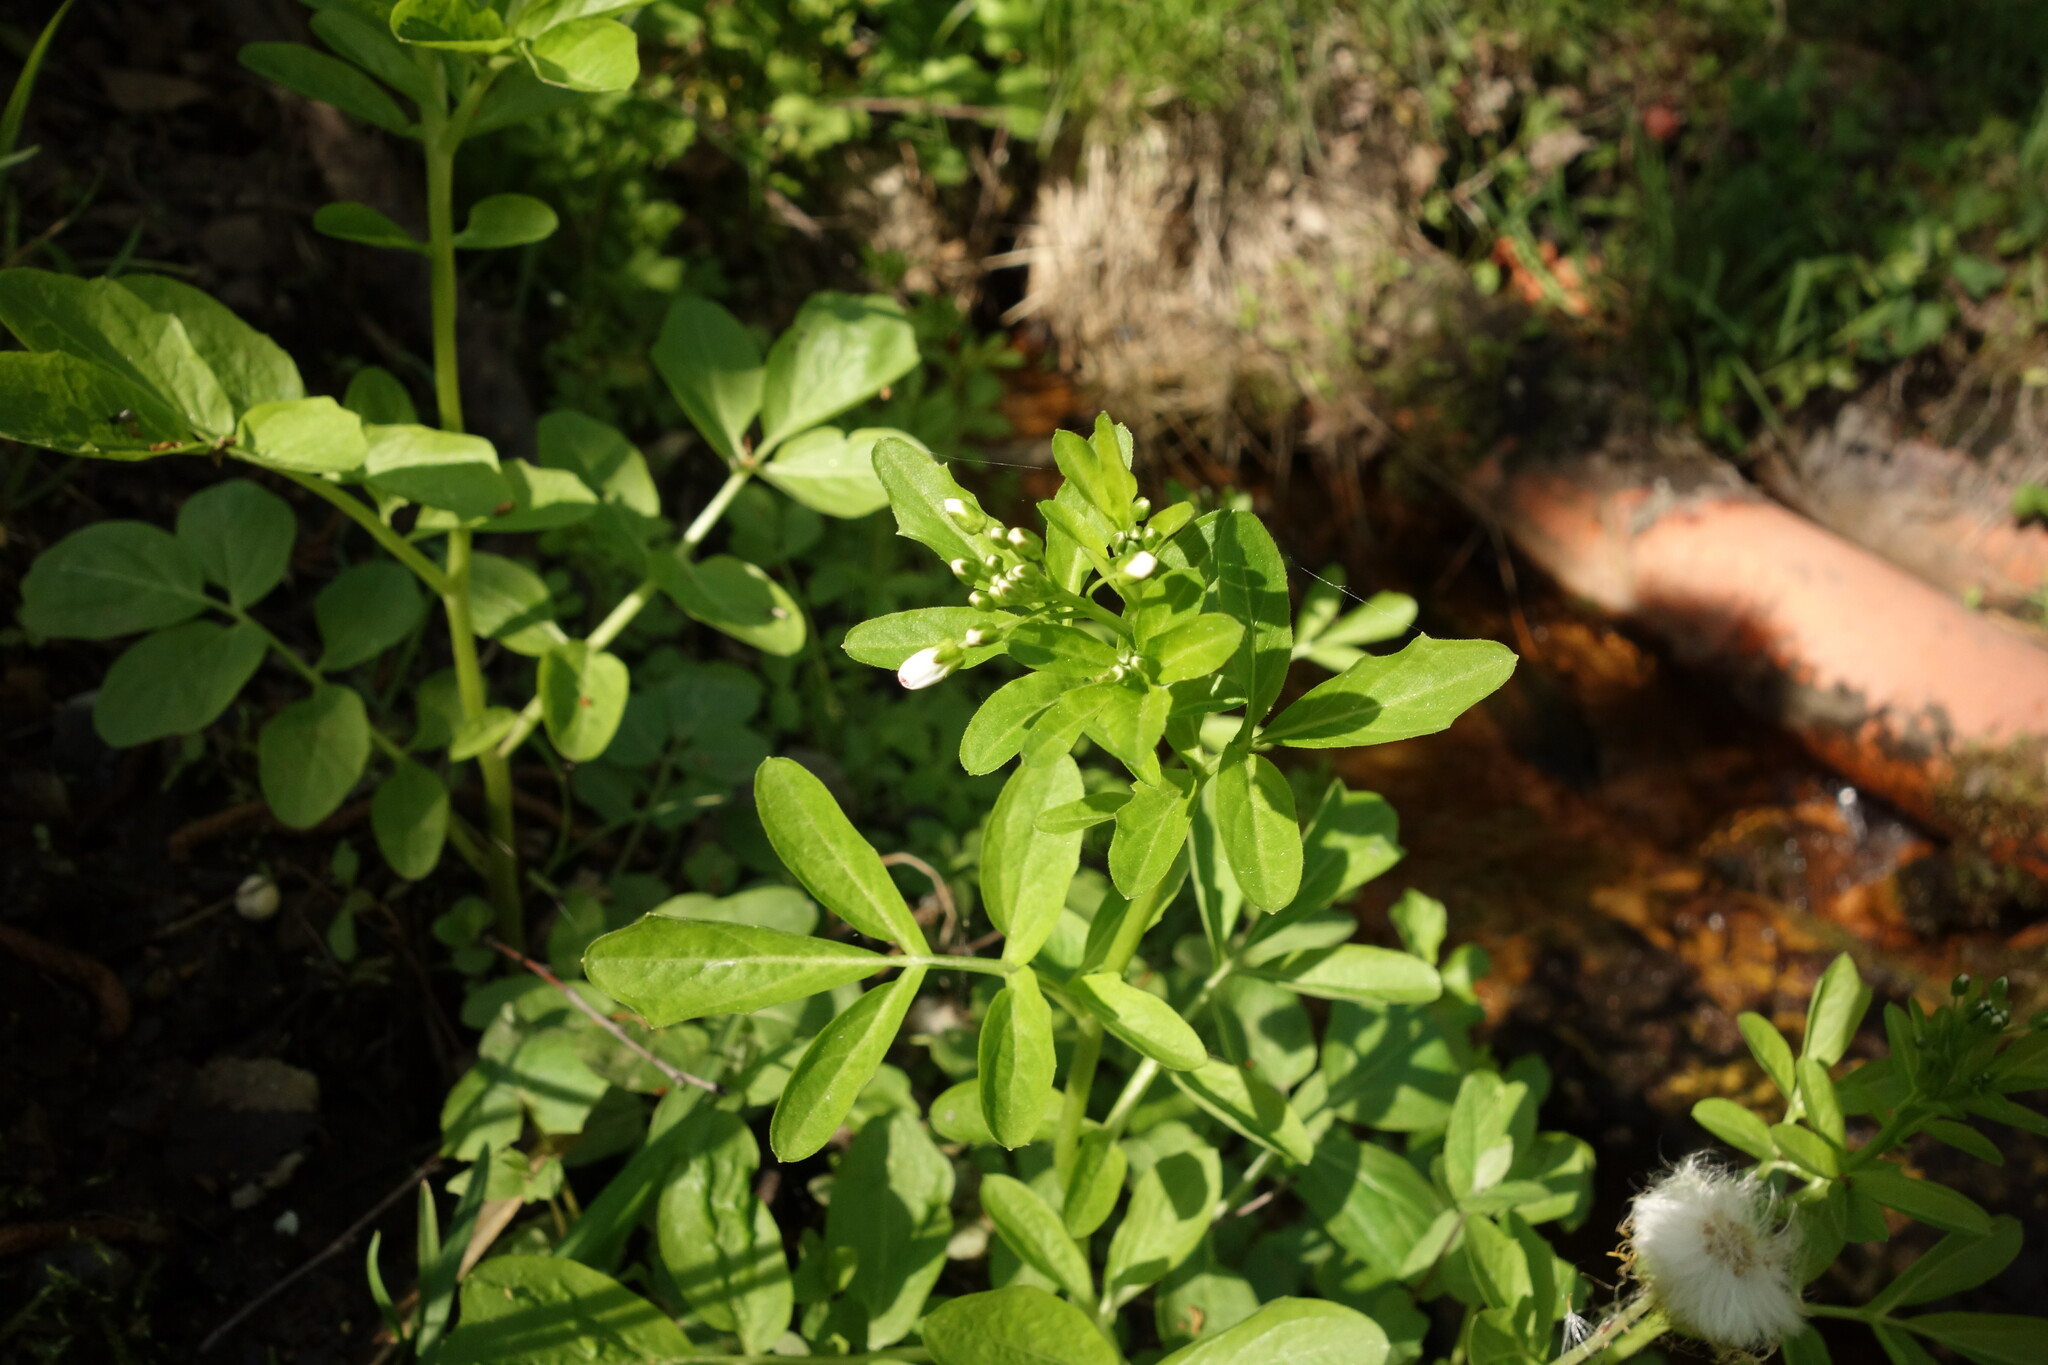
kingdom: Plantae
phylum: Tracheophyta
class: Magnoliopsida
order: Brassicales
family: Brassicaceae
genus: Cardamine
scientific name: Cardamine amara
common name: Large bitter-cress
